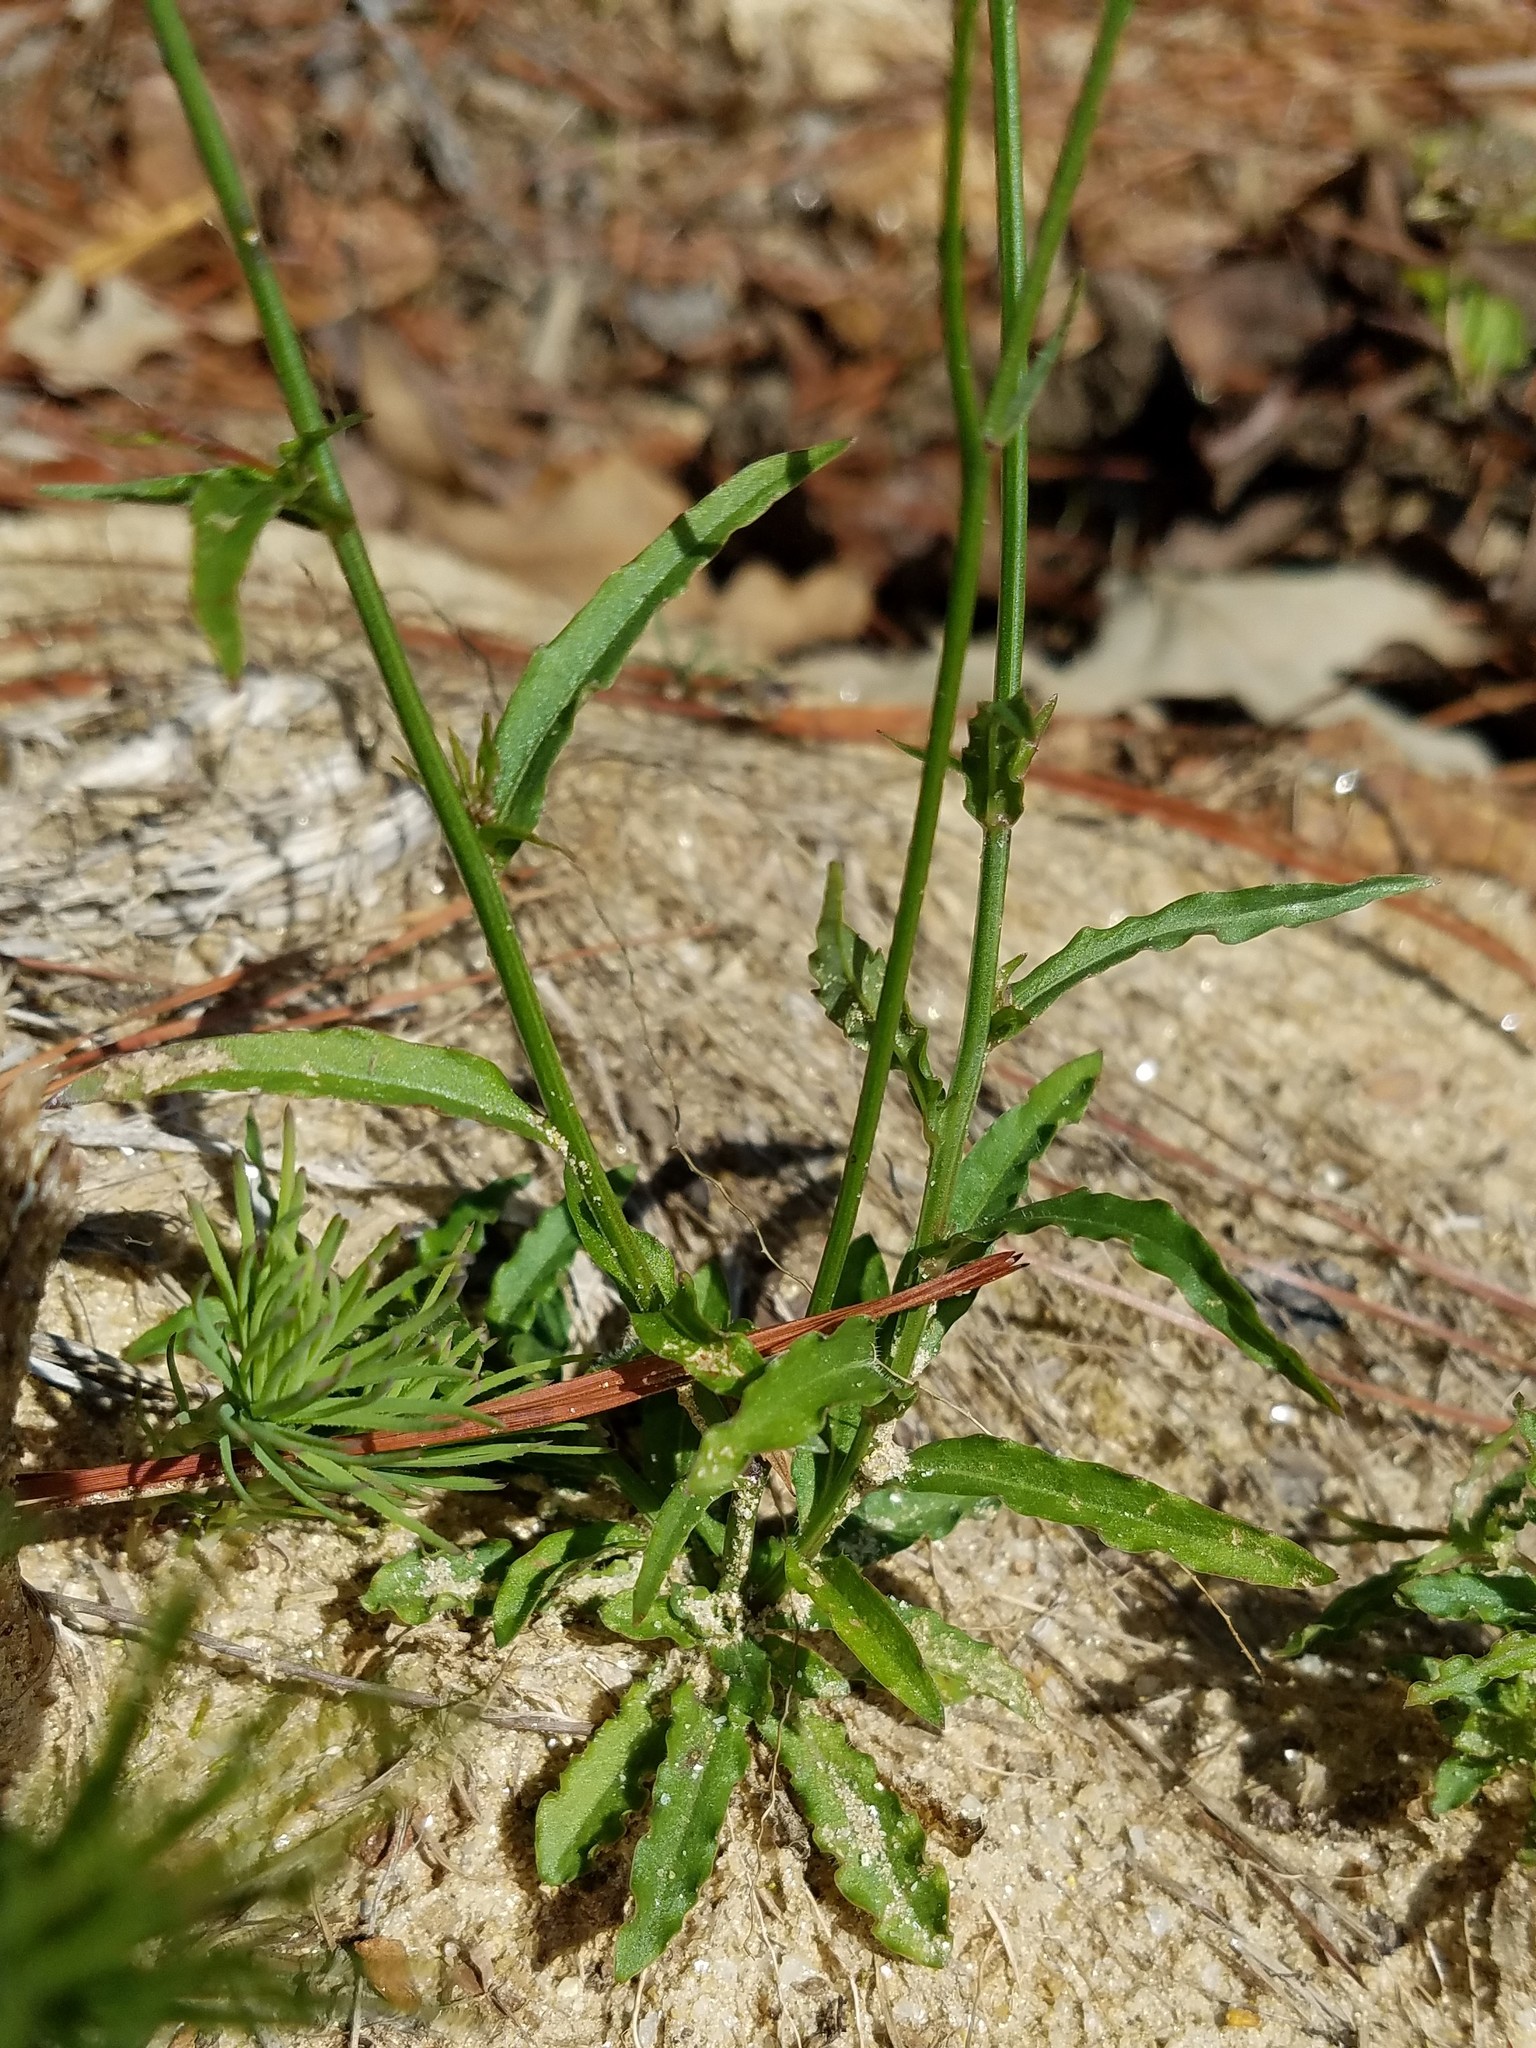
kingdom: Plantae
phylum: Tracheophyta
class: Magnoliopsida
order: Asterales
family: Campanulaceae
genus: Wahlenbergia
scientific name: Wahlenbergia marginata
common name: Southern rockbell
